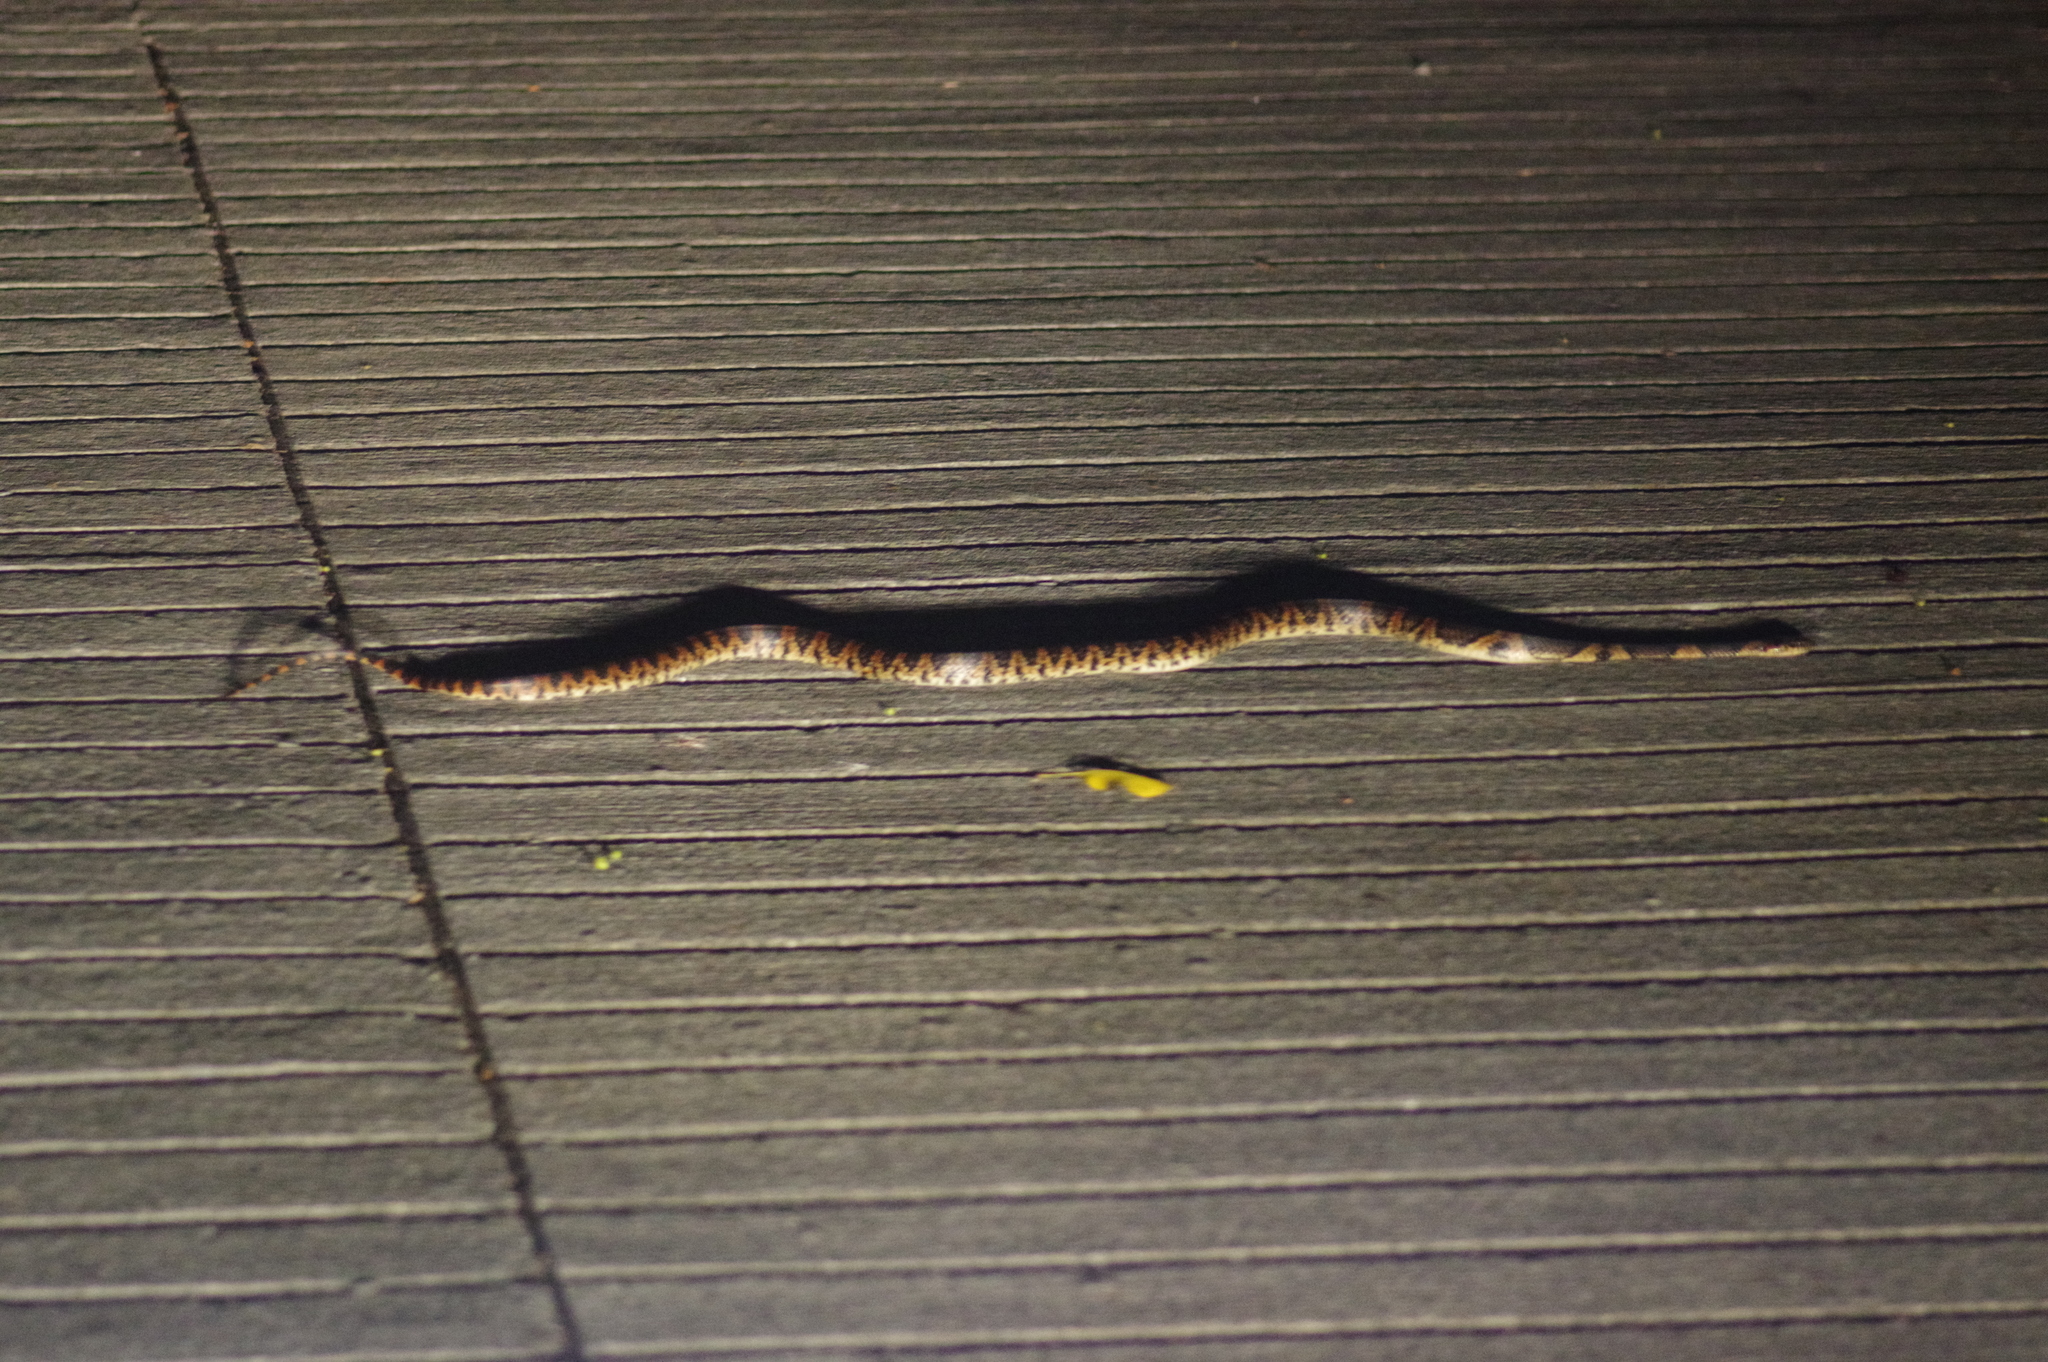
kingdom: Animalia
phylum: Chordata
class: Squamata
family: Colubridae
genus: Lycodon
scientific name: Lycodon semicarinatus
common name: Loo-choo big-tooth snake
